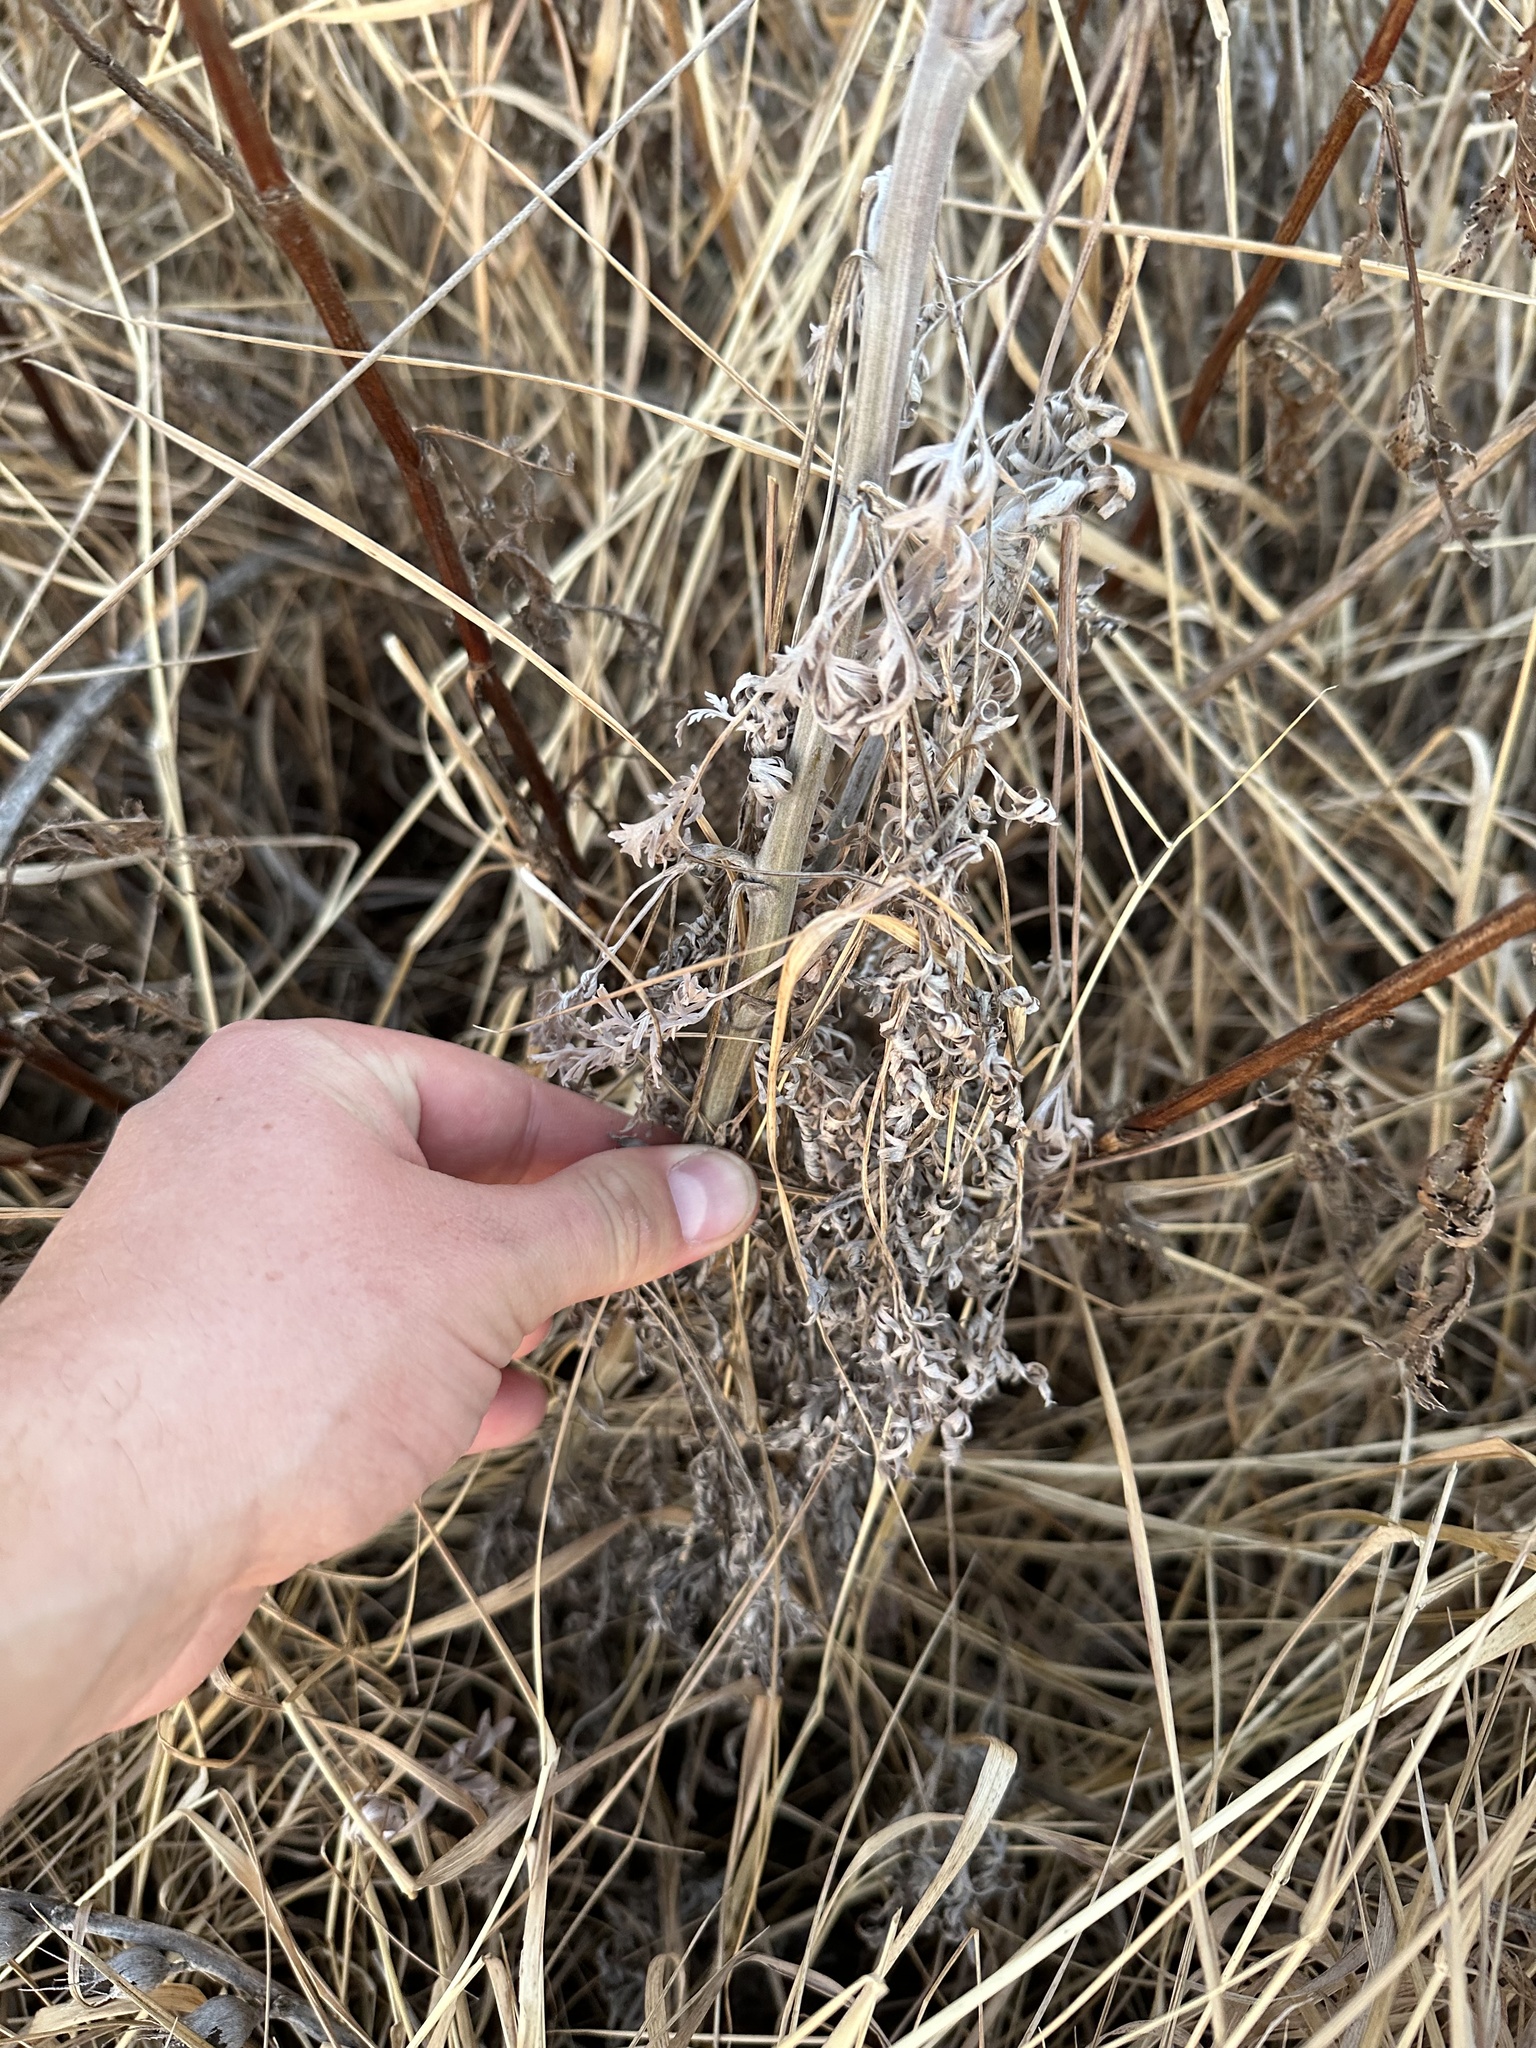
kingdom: Plantae
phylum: Tracheophyta
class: Magnoliopsida
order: Asterales
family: Asteraceae
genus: Artemisia
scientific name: Artemisia absinthium
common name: Wormwood
